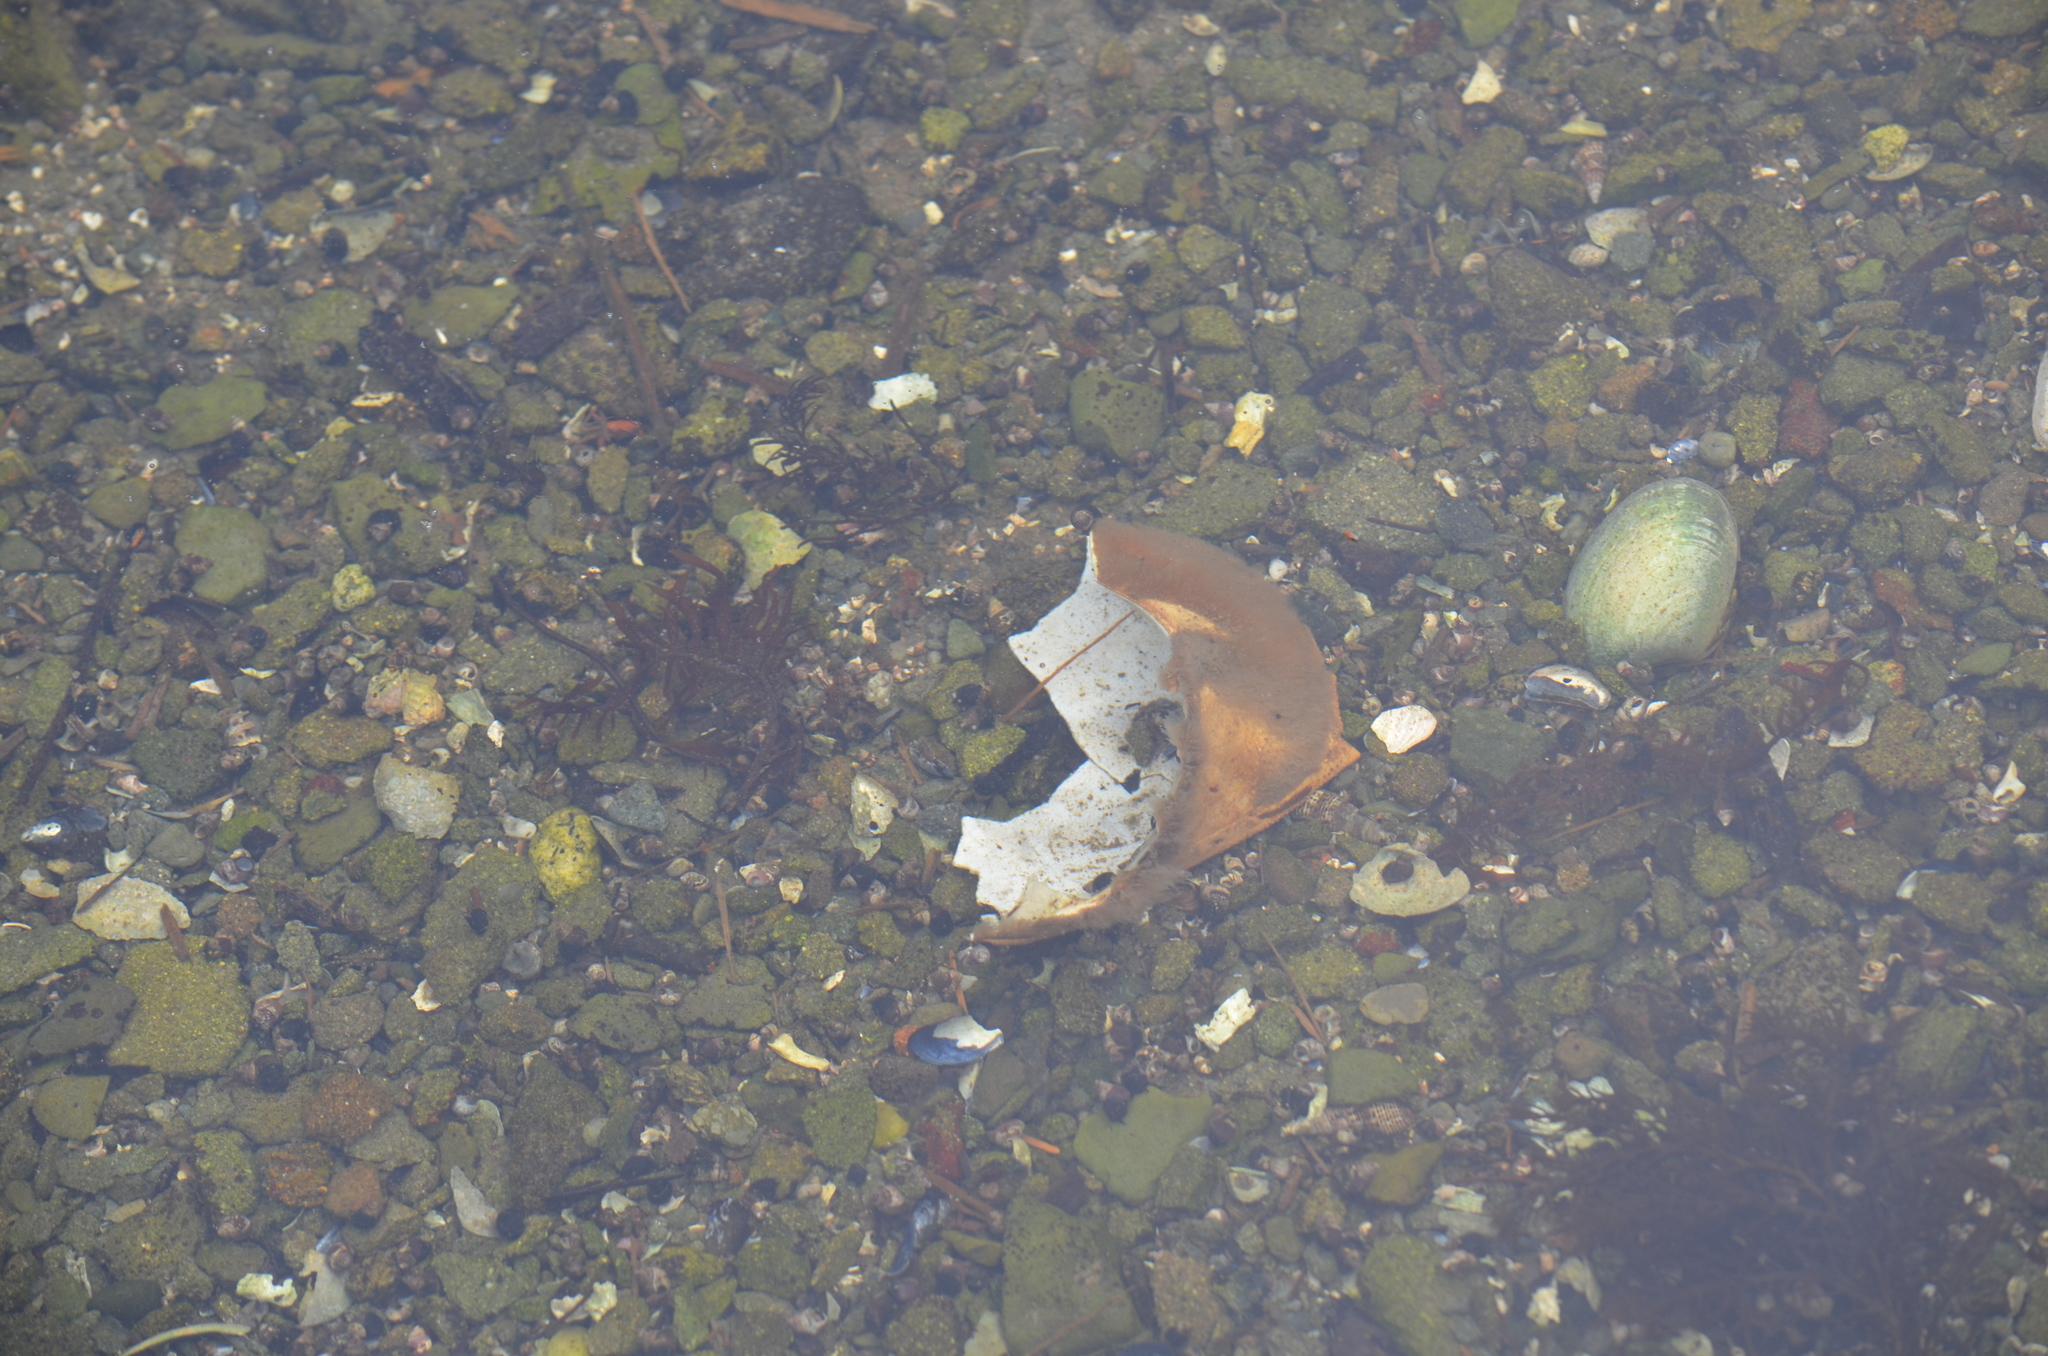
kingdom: Animalia
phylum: Arthropoda
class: Malacostraca
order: Decapoda
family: Cancridae
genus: Metacarcinus
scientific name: Metacarcinus magister
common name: Californian crab
